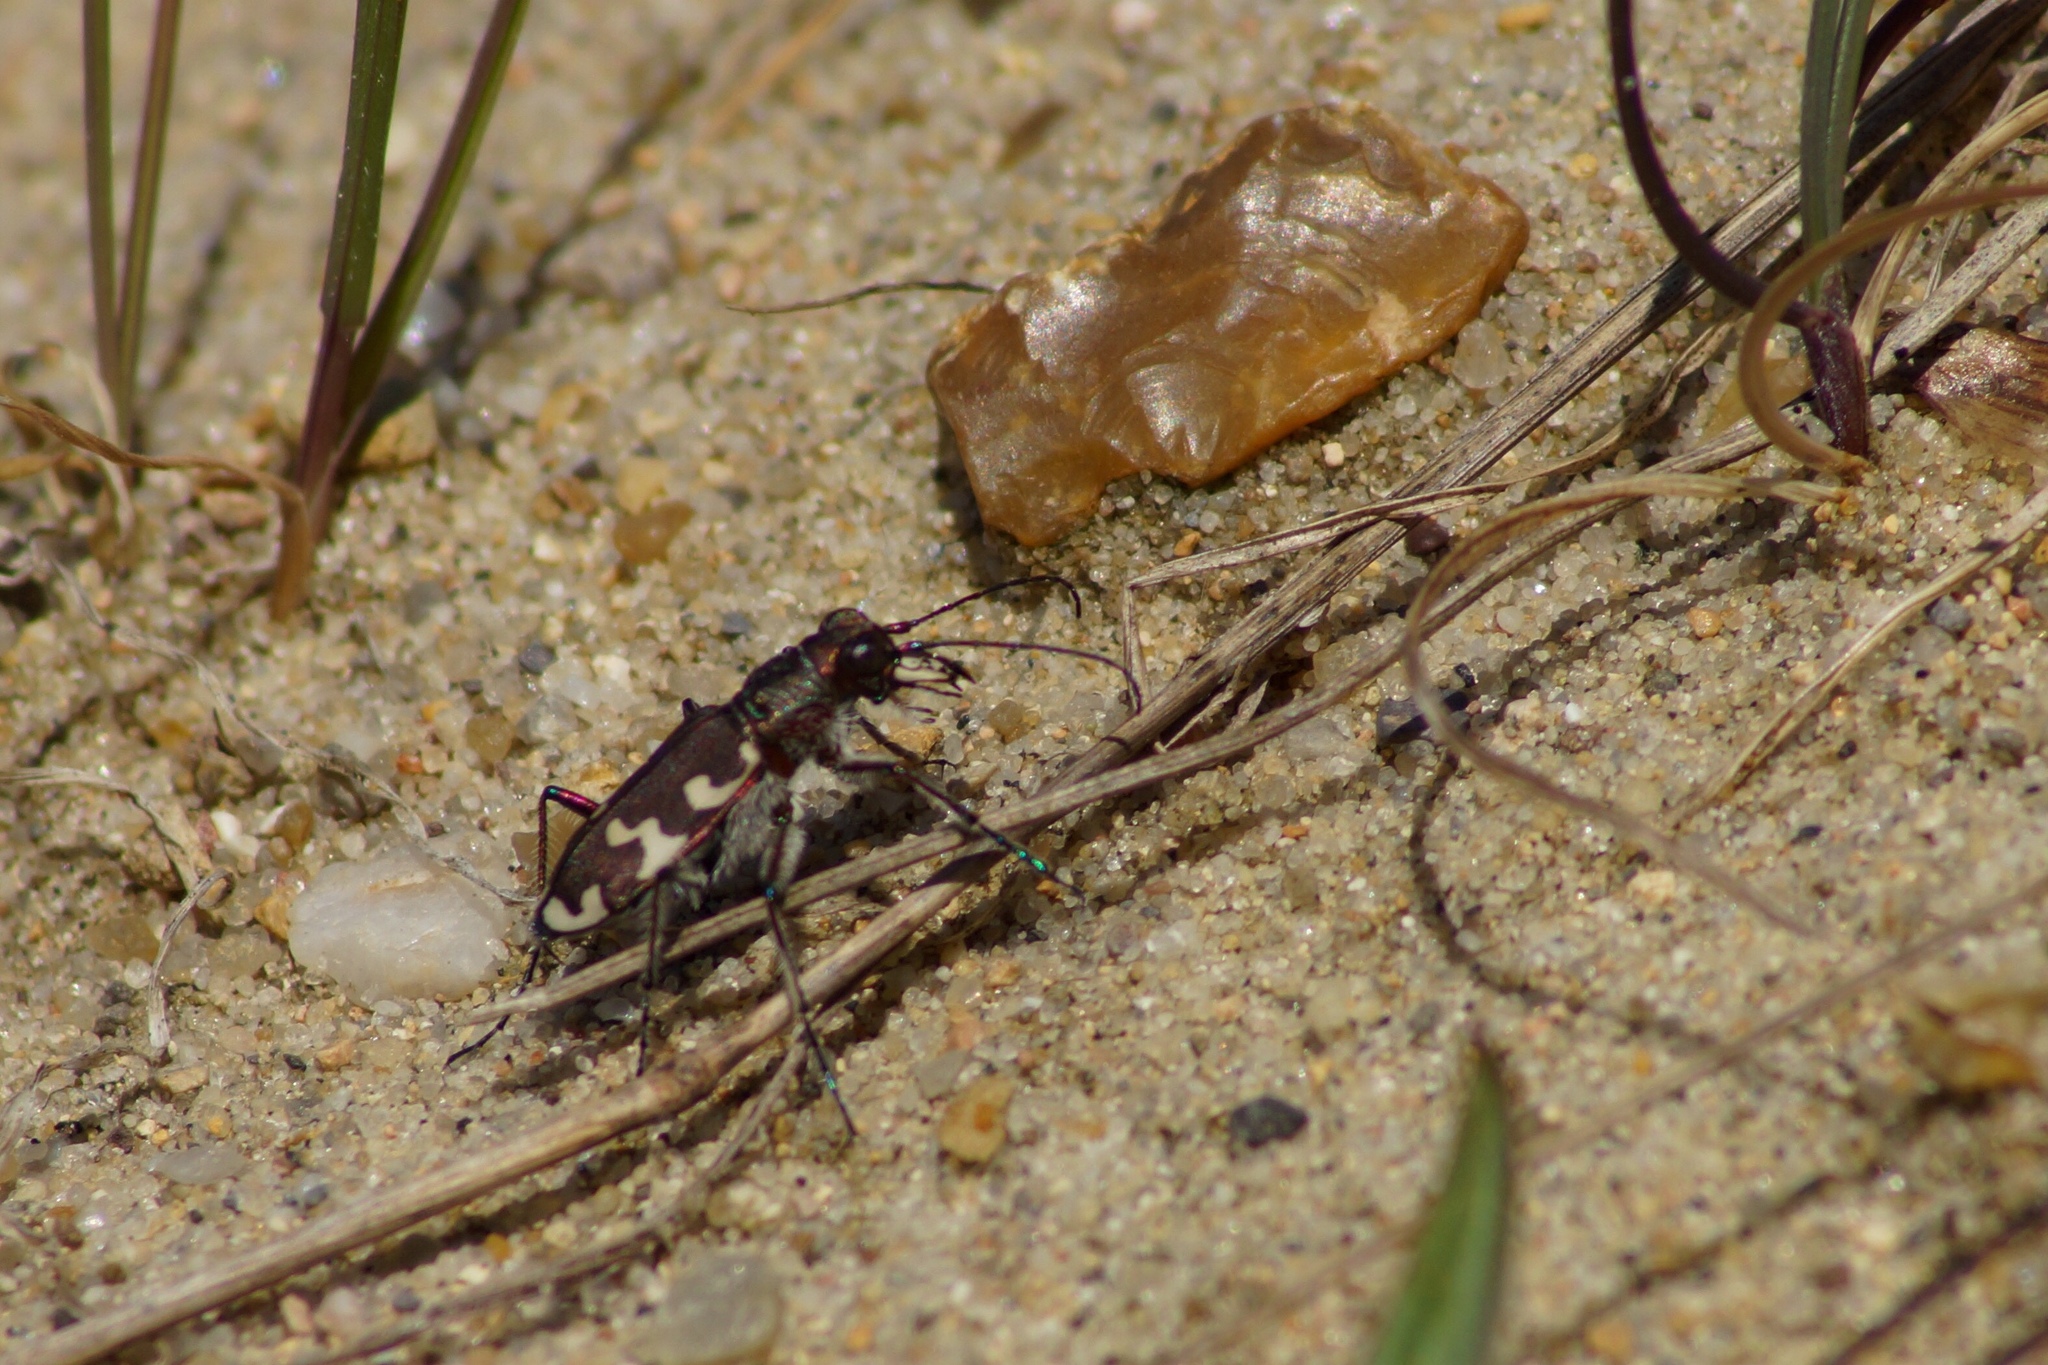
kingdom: Animalia
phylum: Arthropoda
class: Insecta
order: Coleoptera
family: Carabidae
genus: Cicindela
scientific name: Cicindela hybrida
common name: Northern dune tiger beetle
